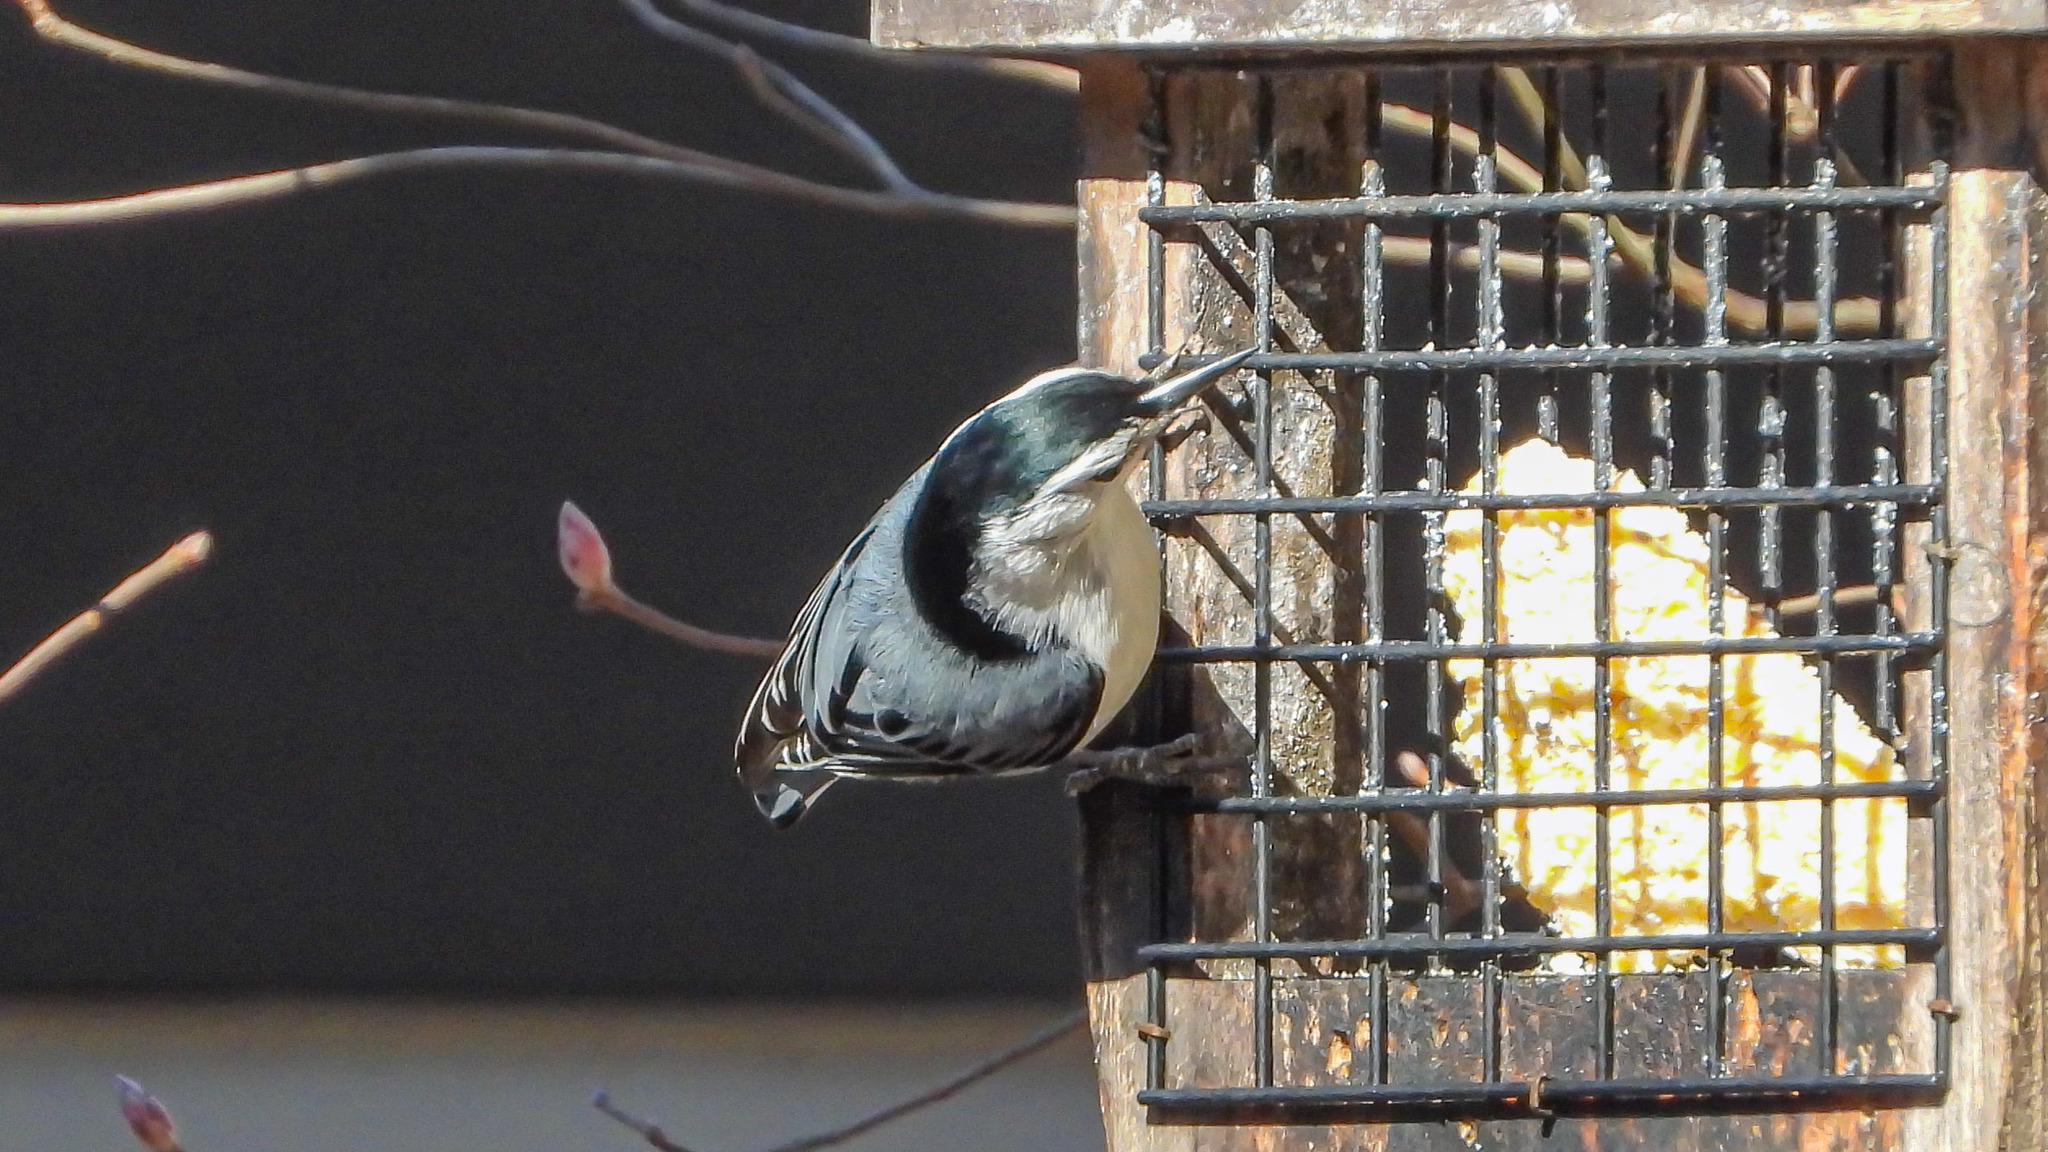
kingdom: Animalia
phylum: Chordata
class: Aves
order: Passeriformes
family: Sittidae
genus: Sitta
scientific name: Sitta carolinensis
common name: White-breasted nuthatch
